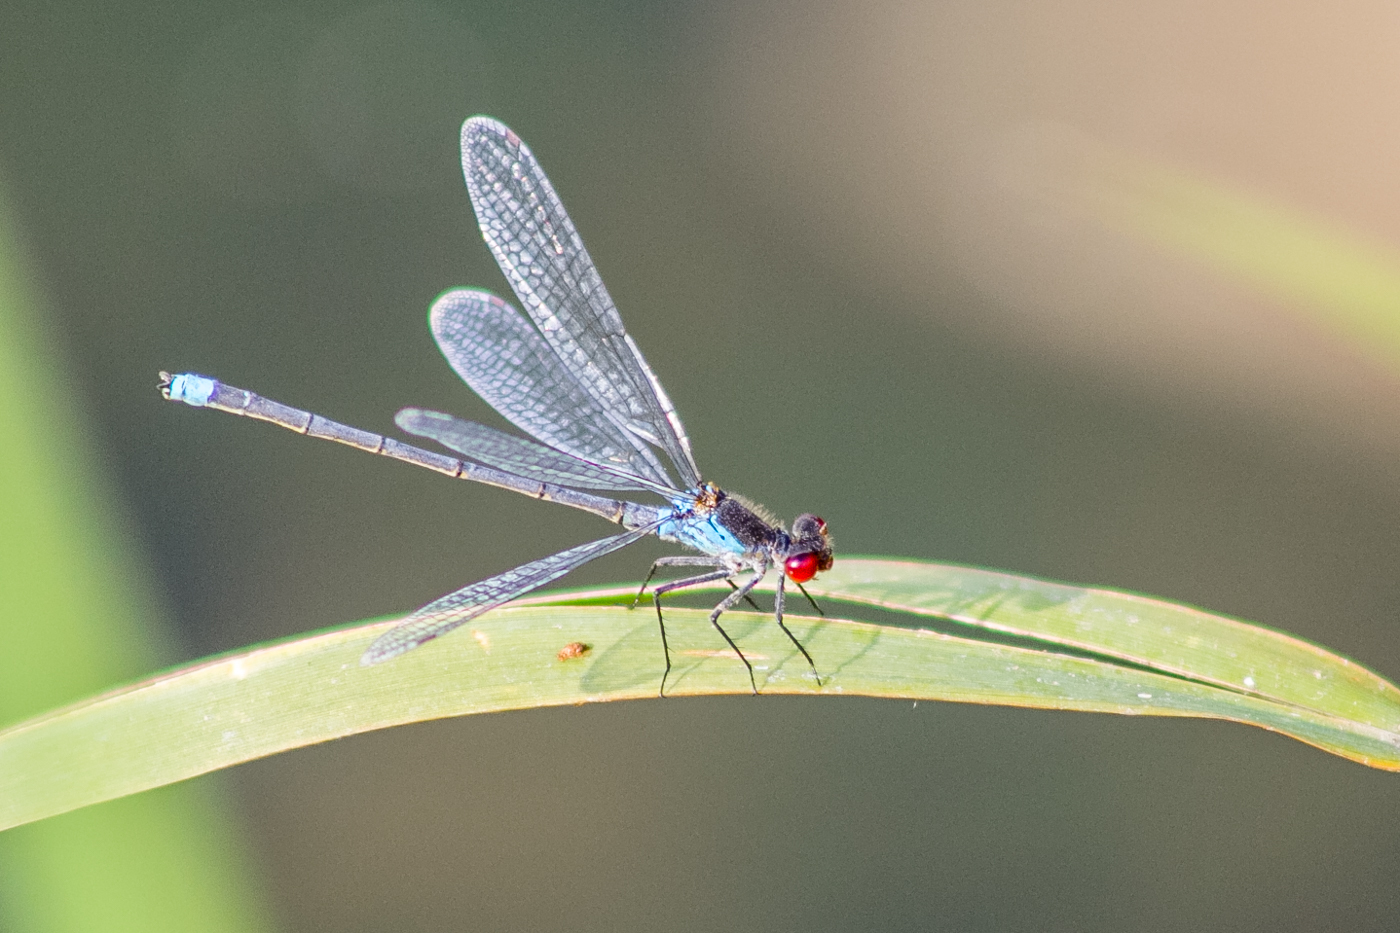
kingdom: Animalia
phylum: Arthropoda
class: Insecta
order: Odonata
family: Coenagrionidae
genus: Erythromma
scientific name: Erythromma najas
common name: Red-eyed damselfly
